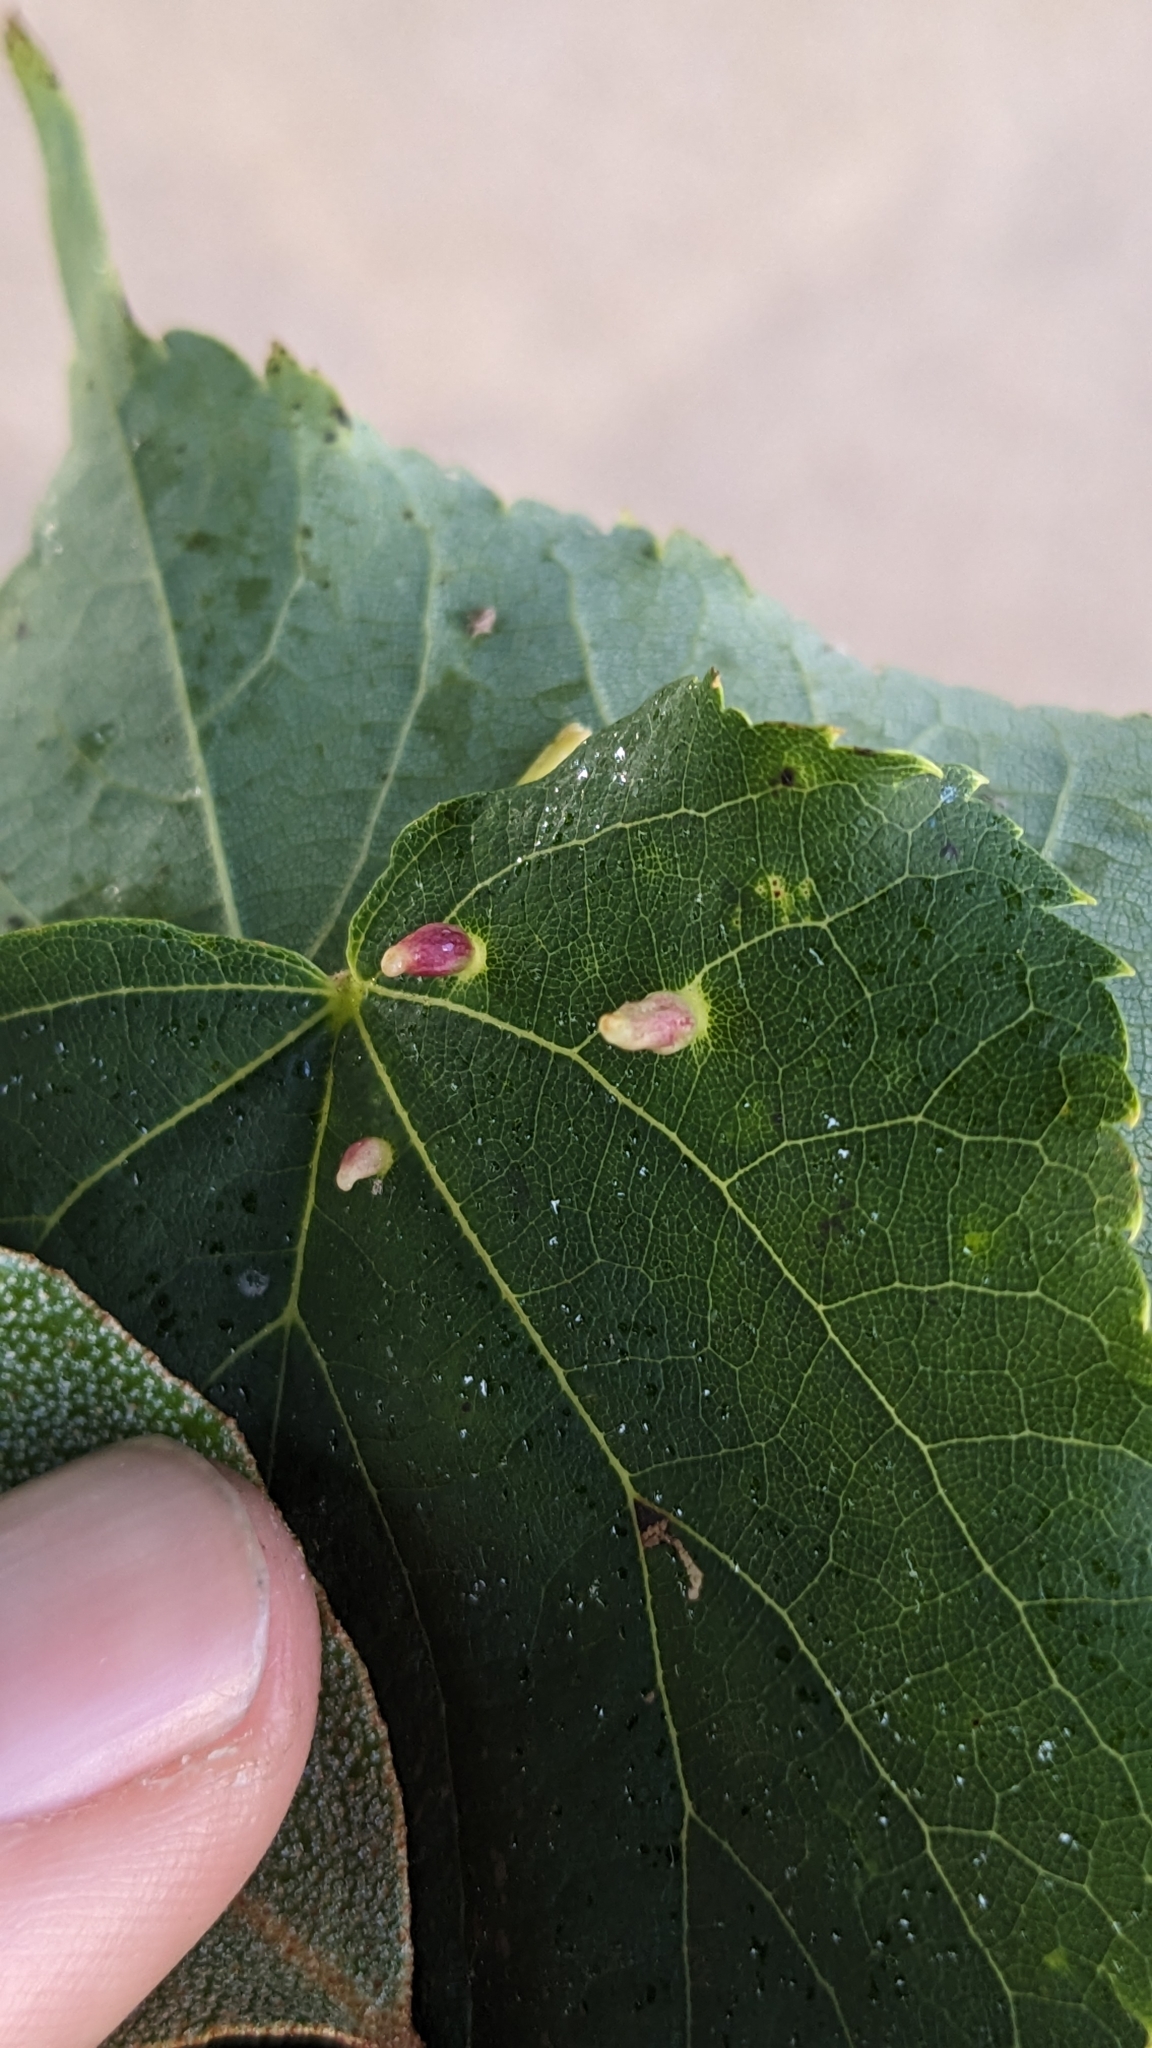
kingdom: Animalia
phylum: Arthropoda
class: Arachnida
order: Trombidiformes
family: Eriophyidae
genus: Eriophyes
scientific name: Eriophyes tiliae
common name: Red nail gall mite
